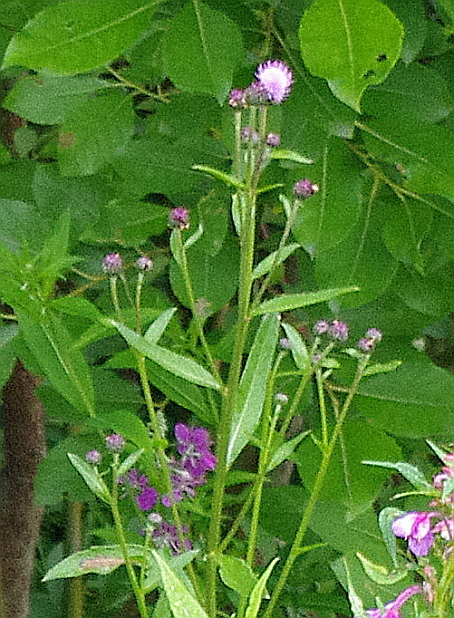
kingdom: Plantae
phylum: Tracheophyta
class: Magnoliopsida
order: Asterales
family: Asteraceae
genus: Cirsium
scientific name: Cirsium arvense
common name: Creeping thistle
